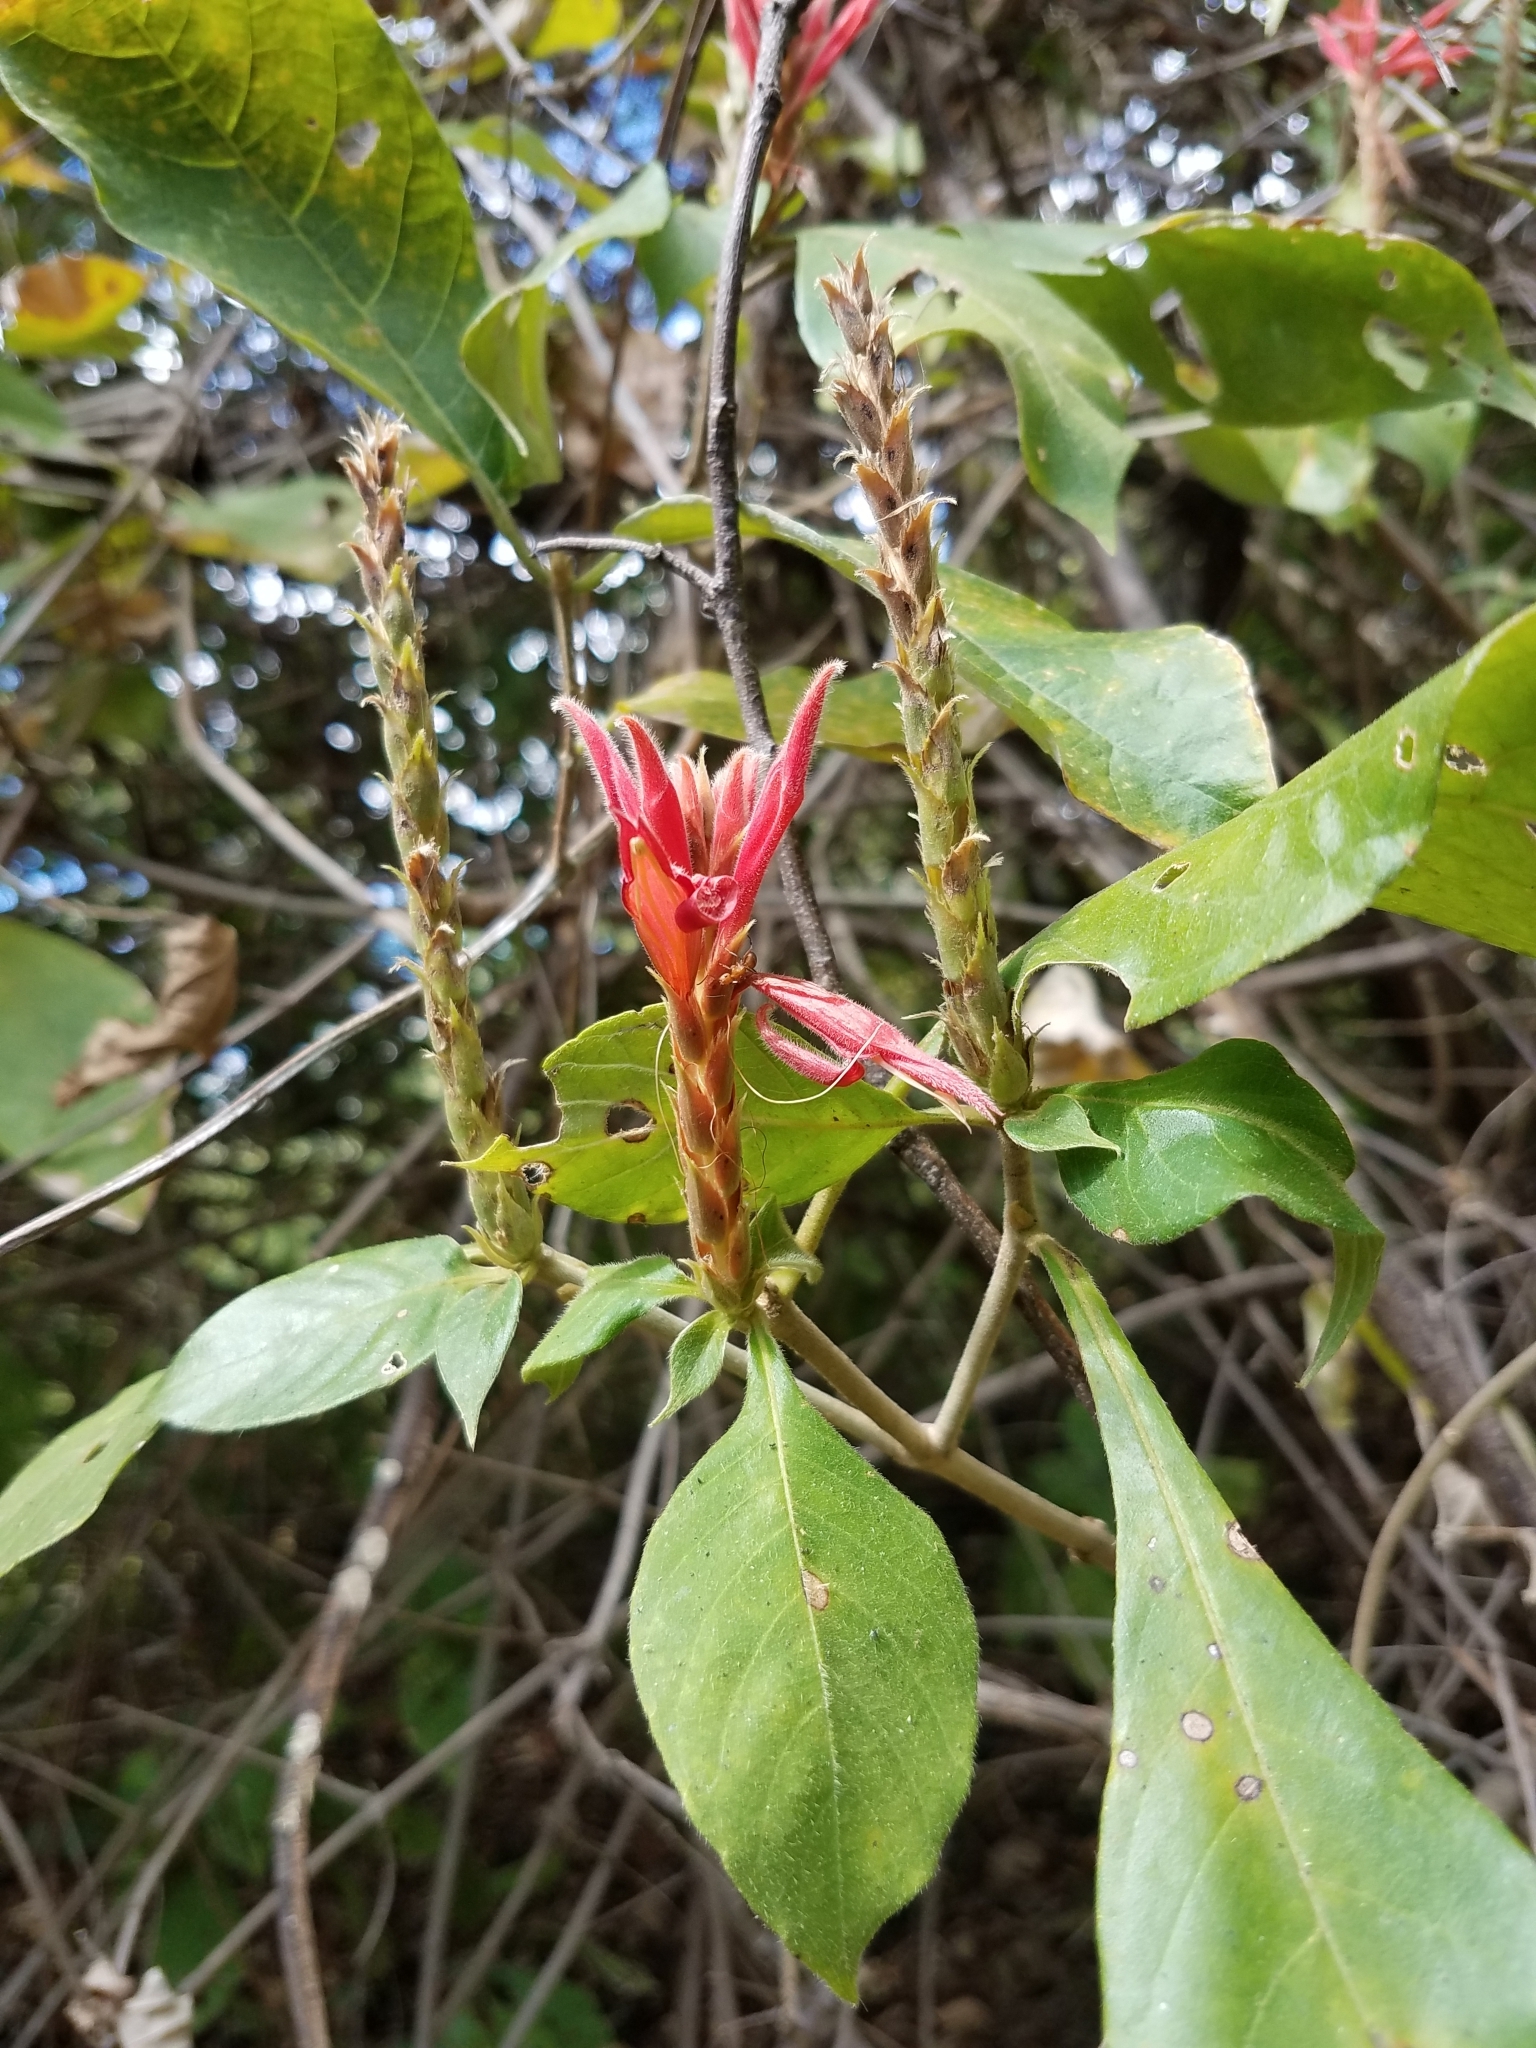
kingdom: Plantae
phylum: Tracheophyta
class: Magnoliopsida
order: Lamiales
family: Acanthaceae
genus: Aphelandra
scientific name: Aphelandra scabra
